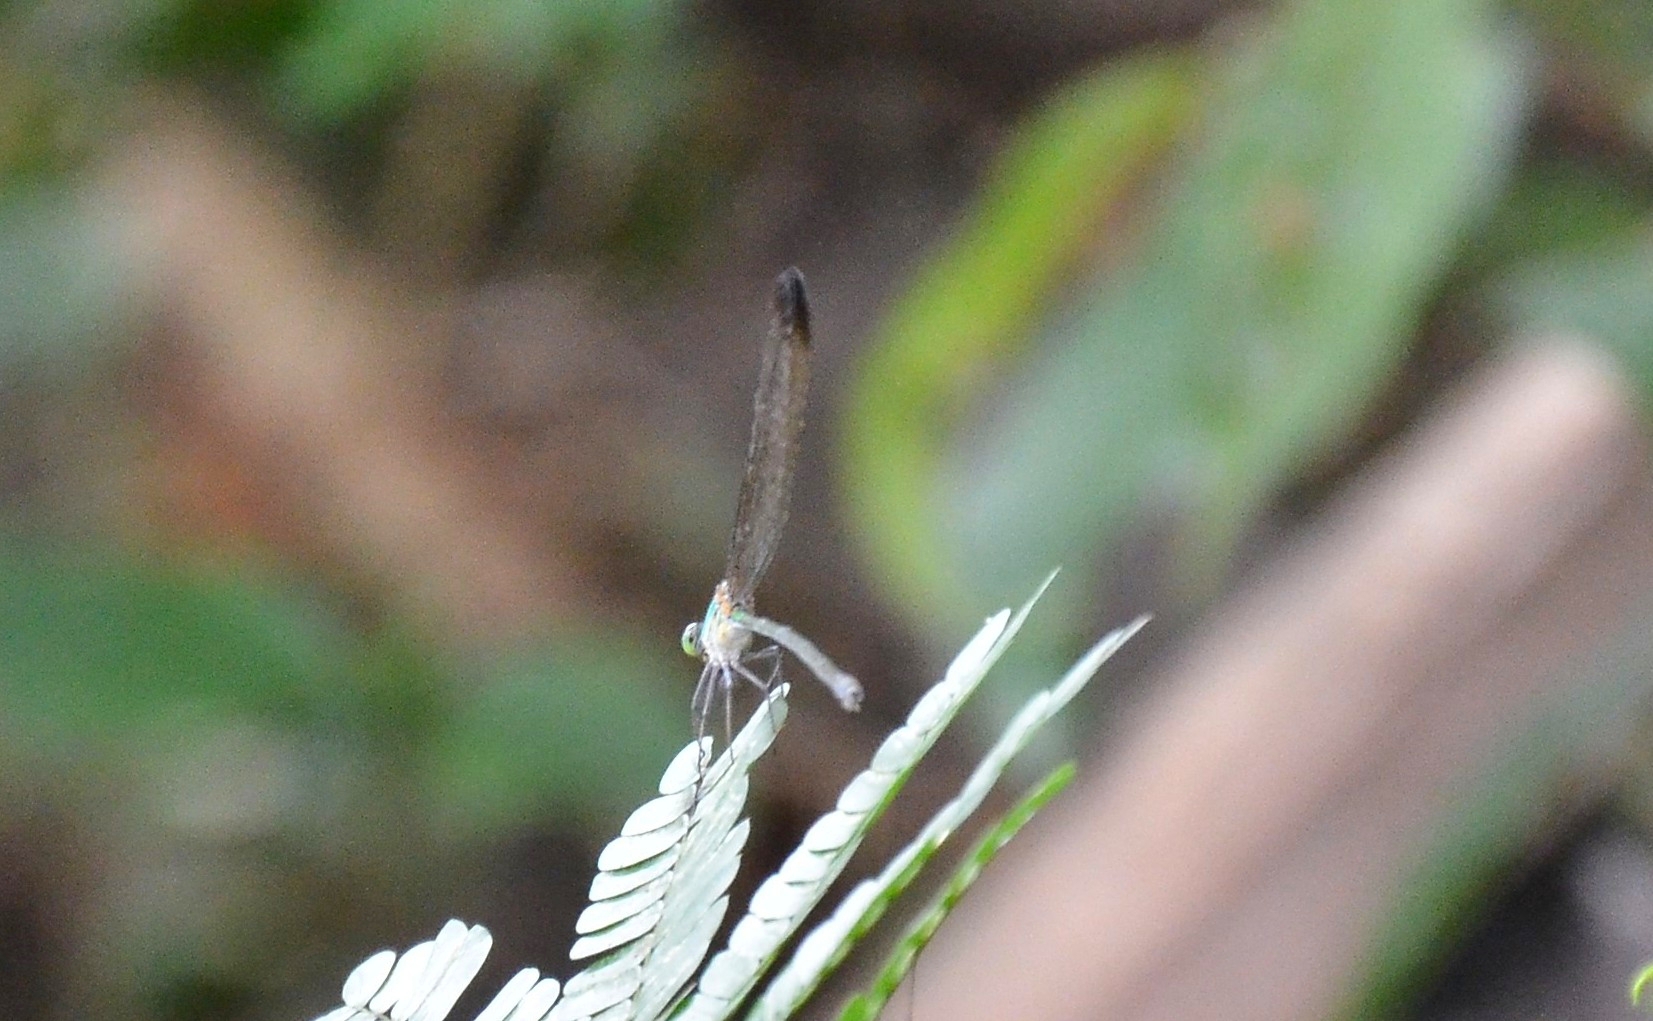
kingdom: Animalia
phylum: Arthropoda
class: Insecta
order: Odonata
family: Calopterygidae
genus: Vestalis
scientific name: Vestalis apicalis
